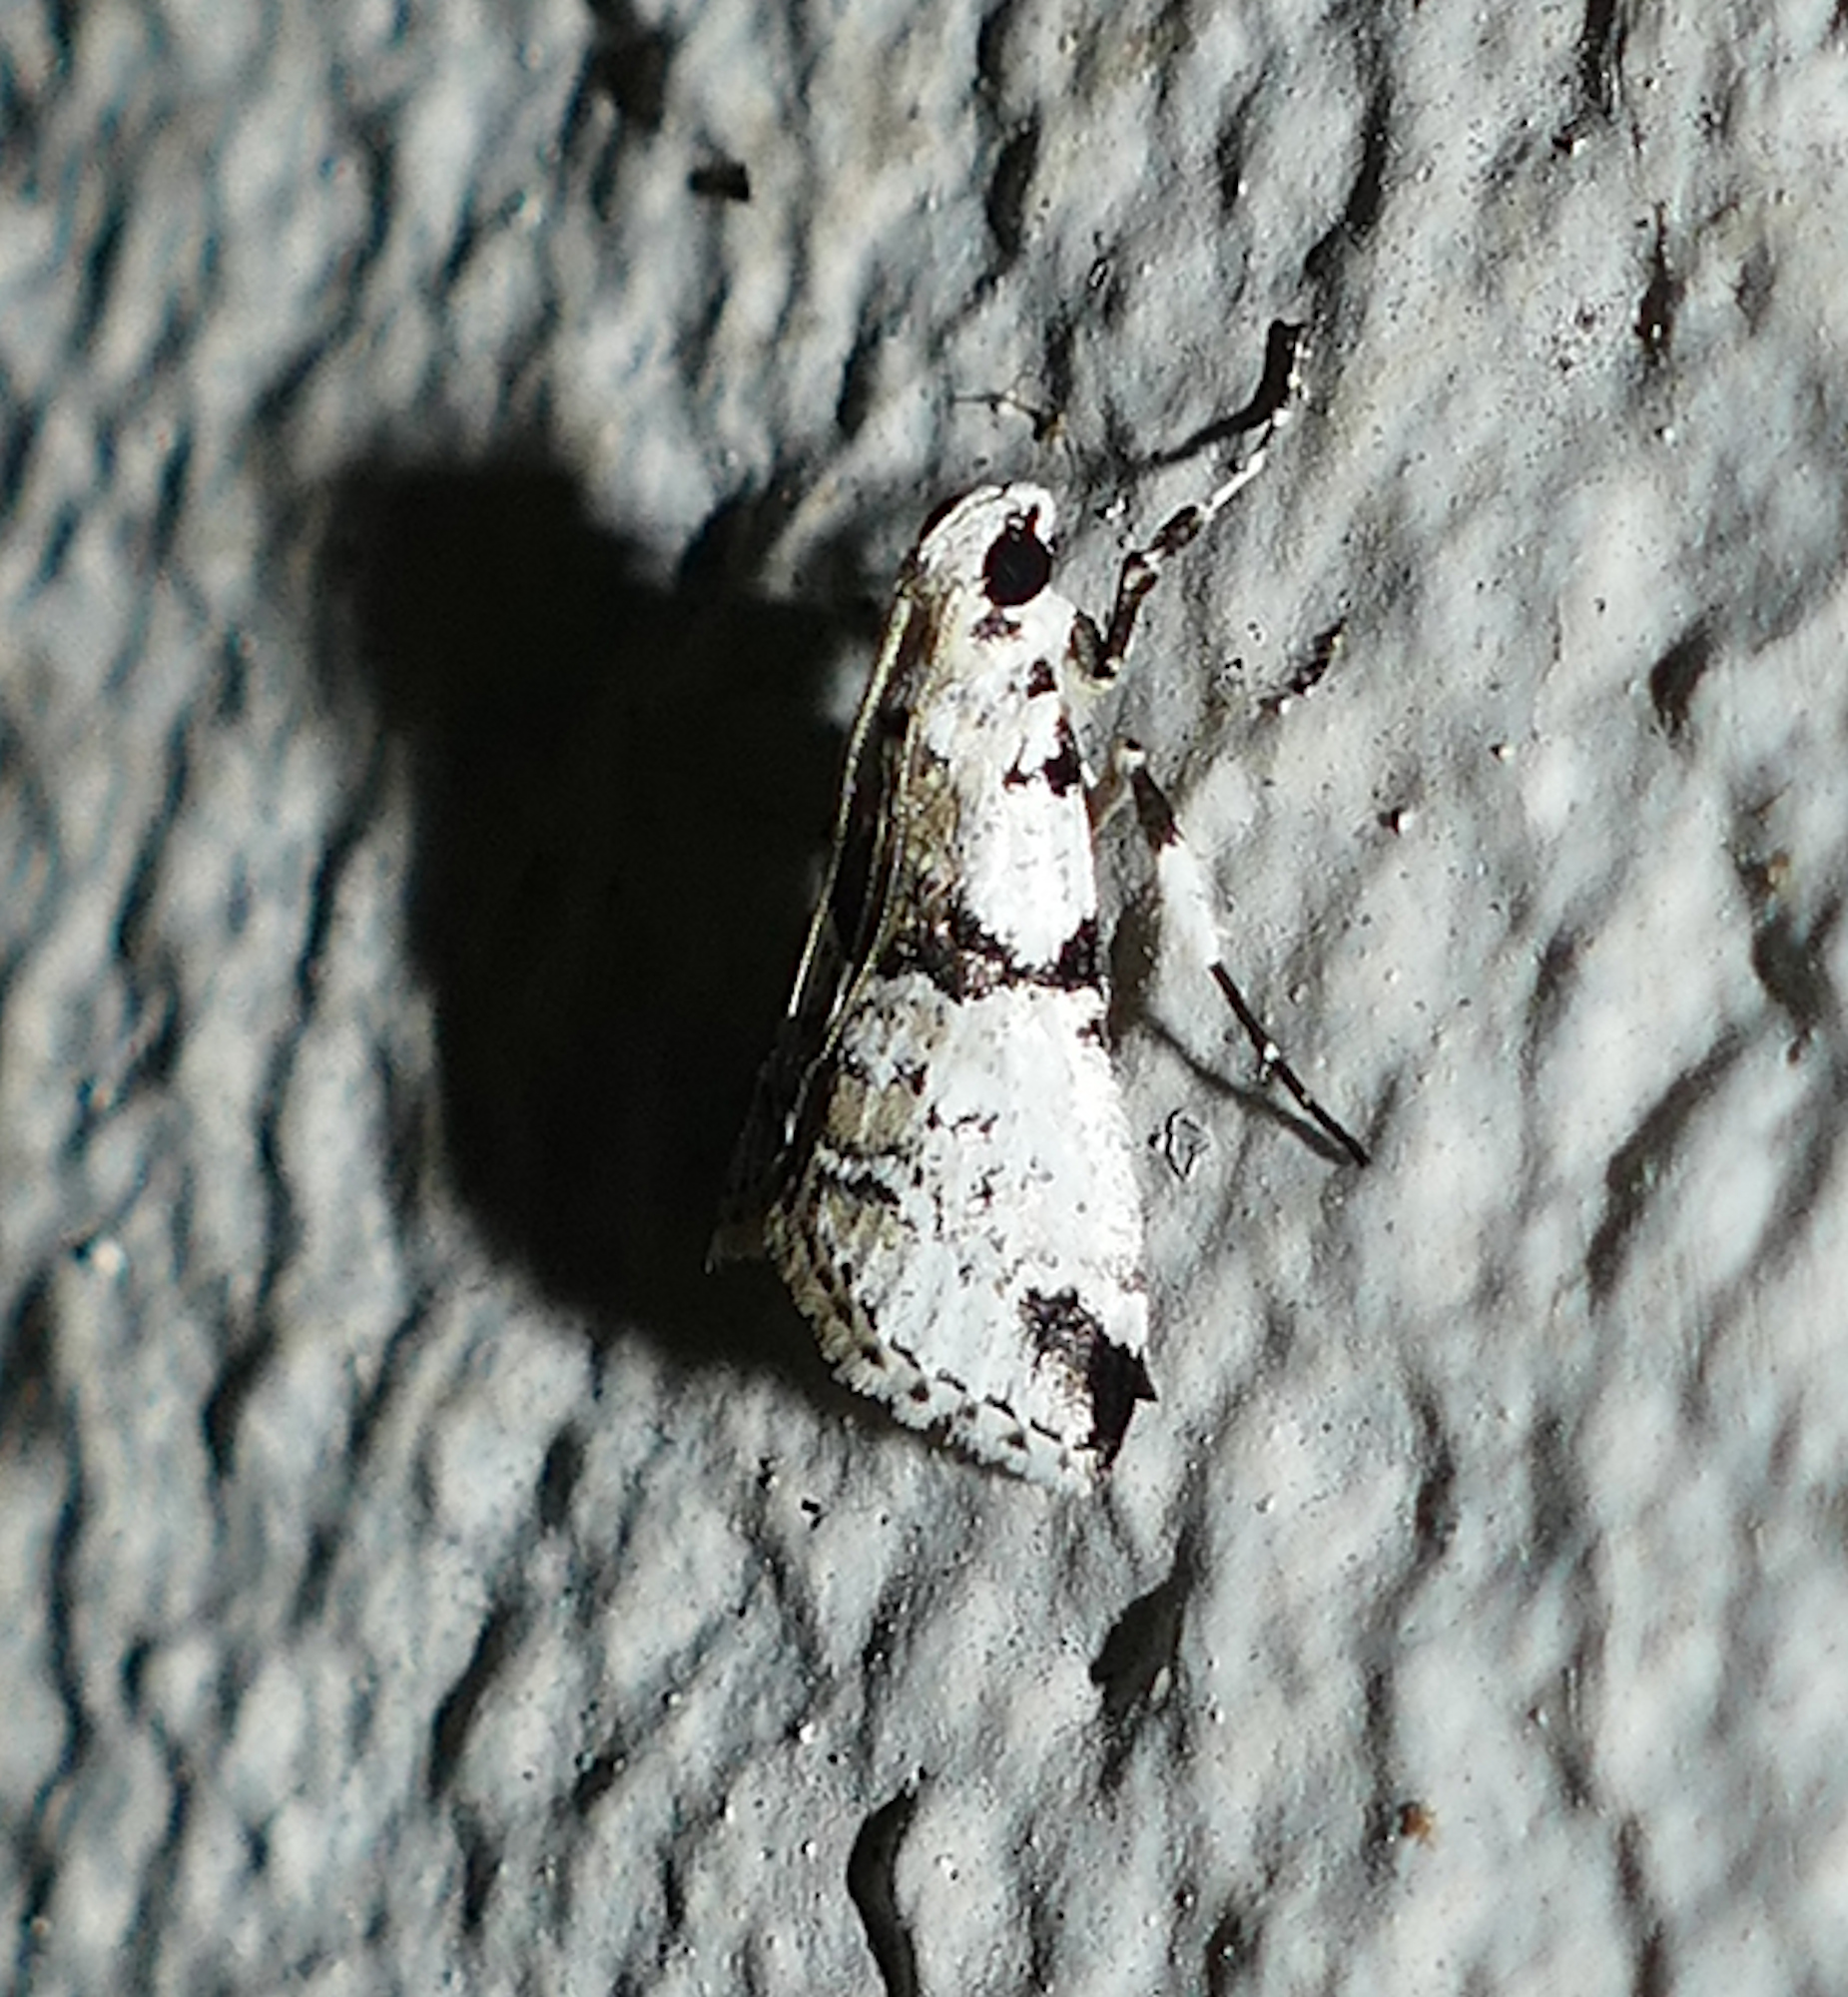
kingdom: Animalia
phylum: Arthropoda
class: Insecta
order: Lepidoptera
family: Pyralidae
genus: Tallula
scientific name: Tallula atrifascialis
